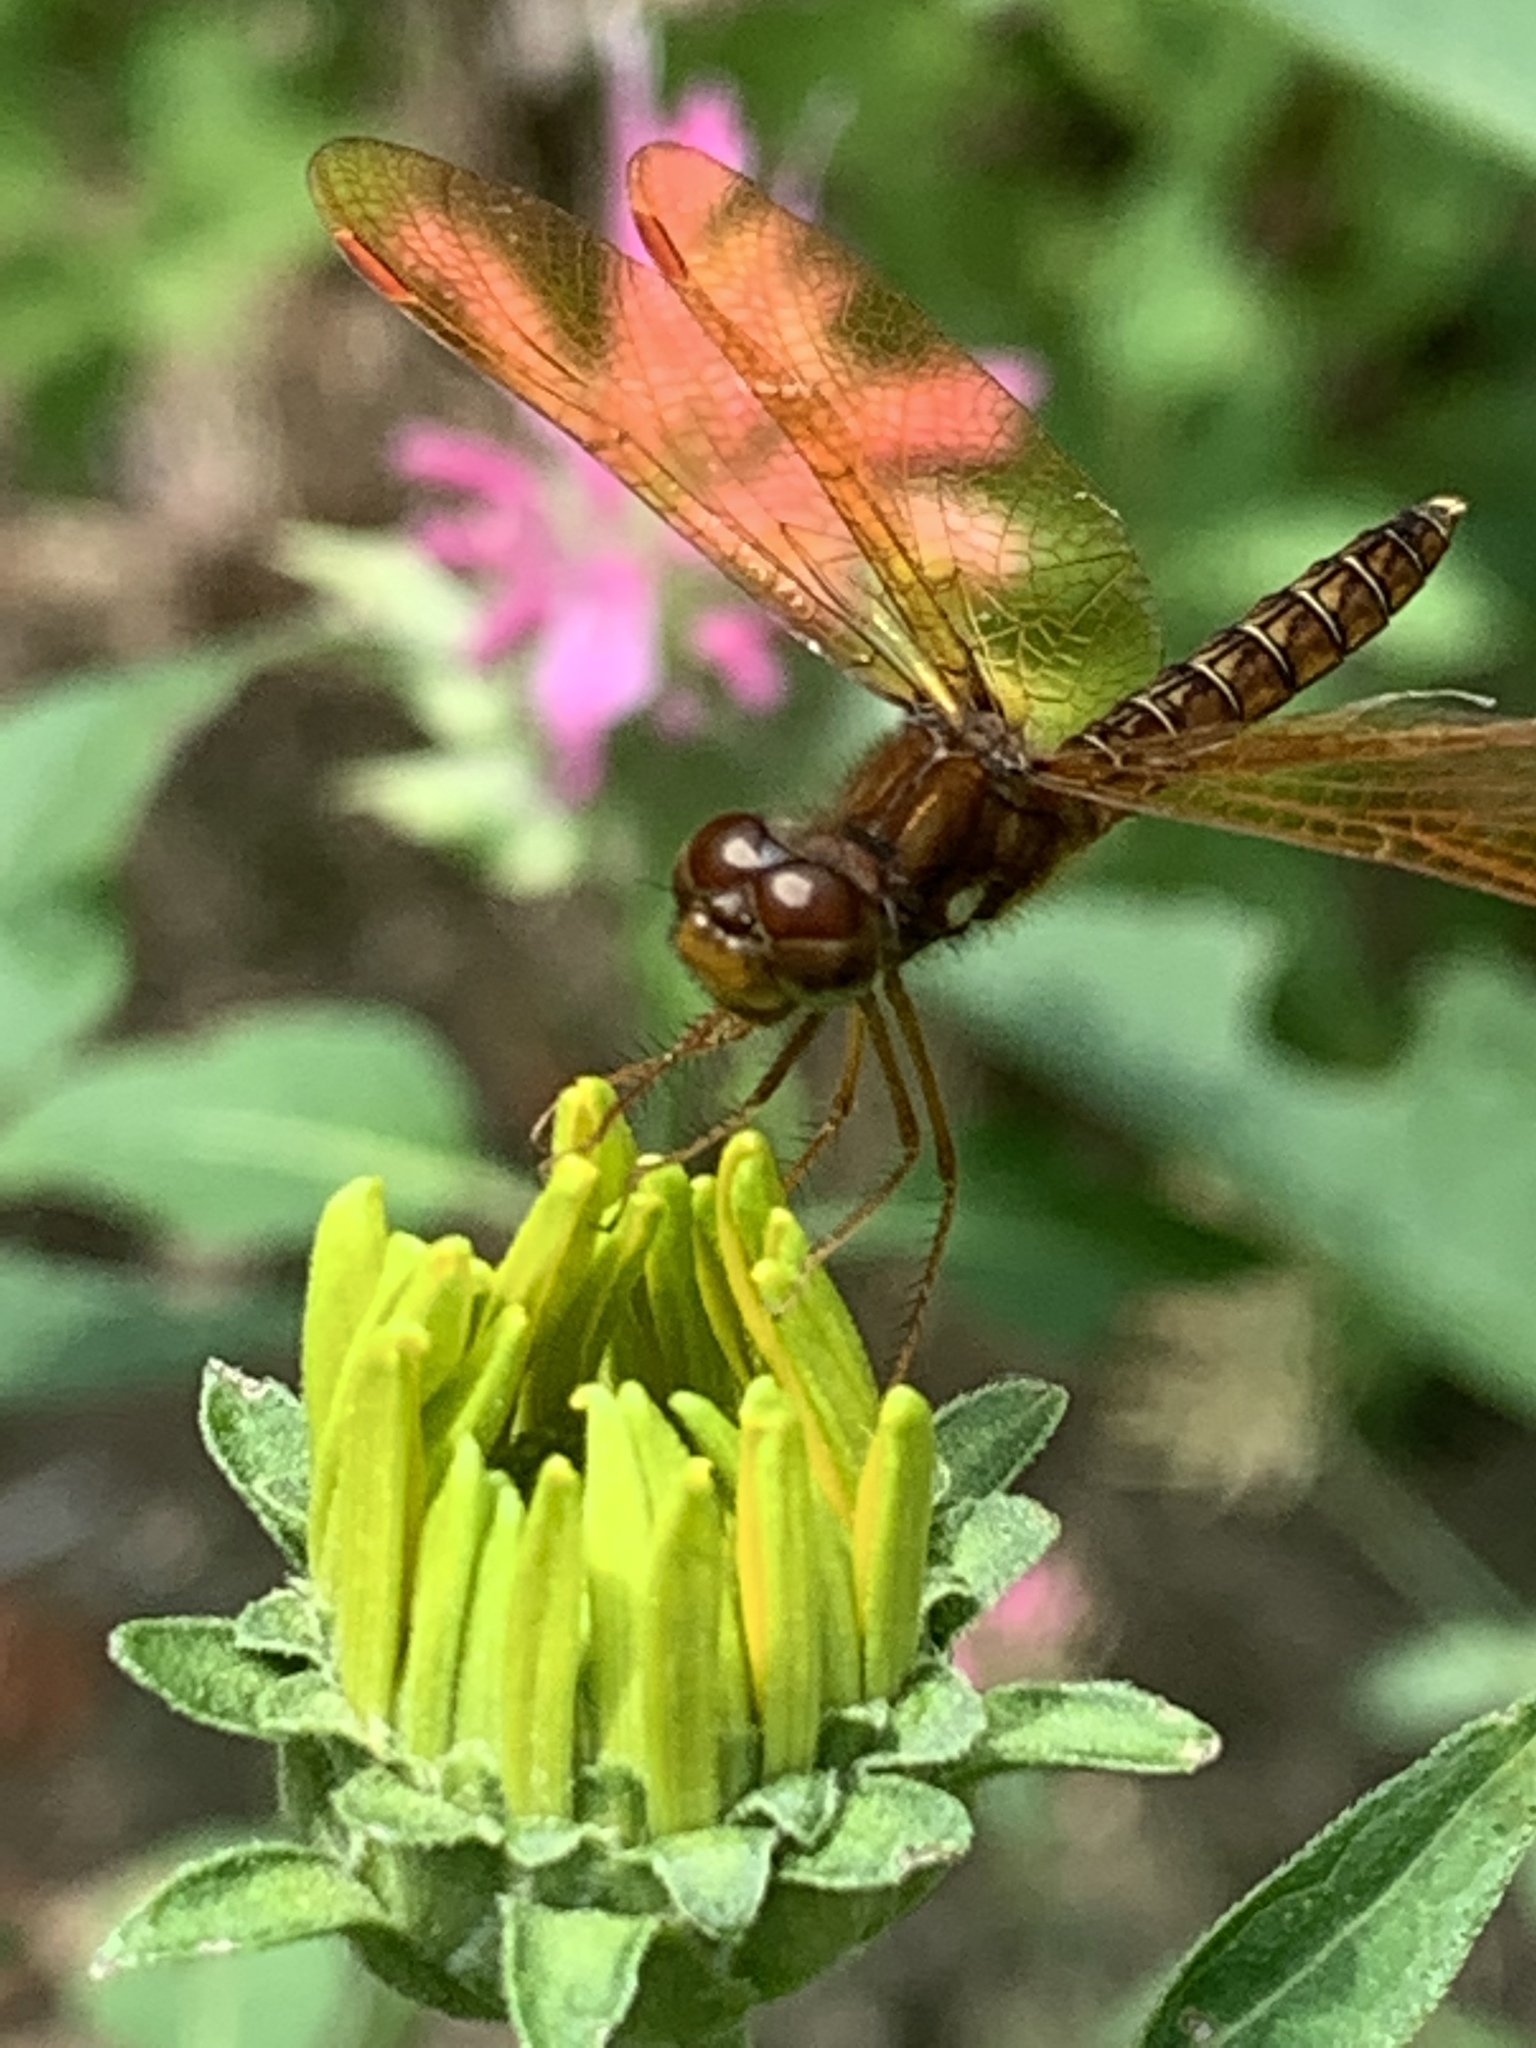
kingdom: Animalia
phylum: Arthropoda
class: Insecta
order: Odonata
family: Libellulidae
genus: Perithemis
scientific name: Perithemis tenera
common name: Eastern amberwing
